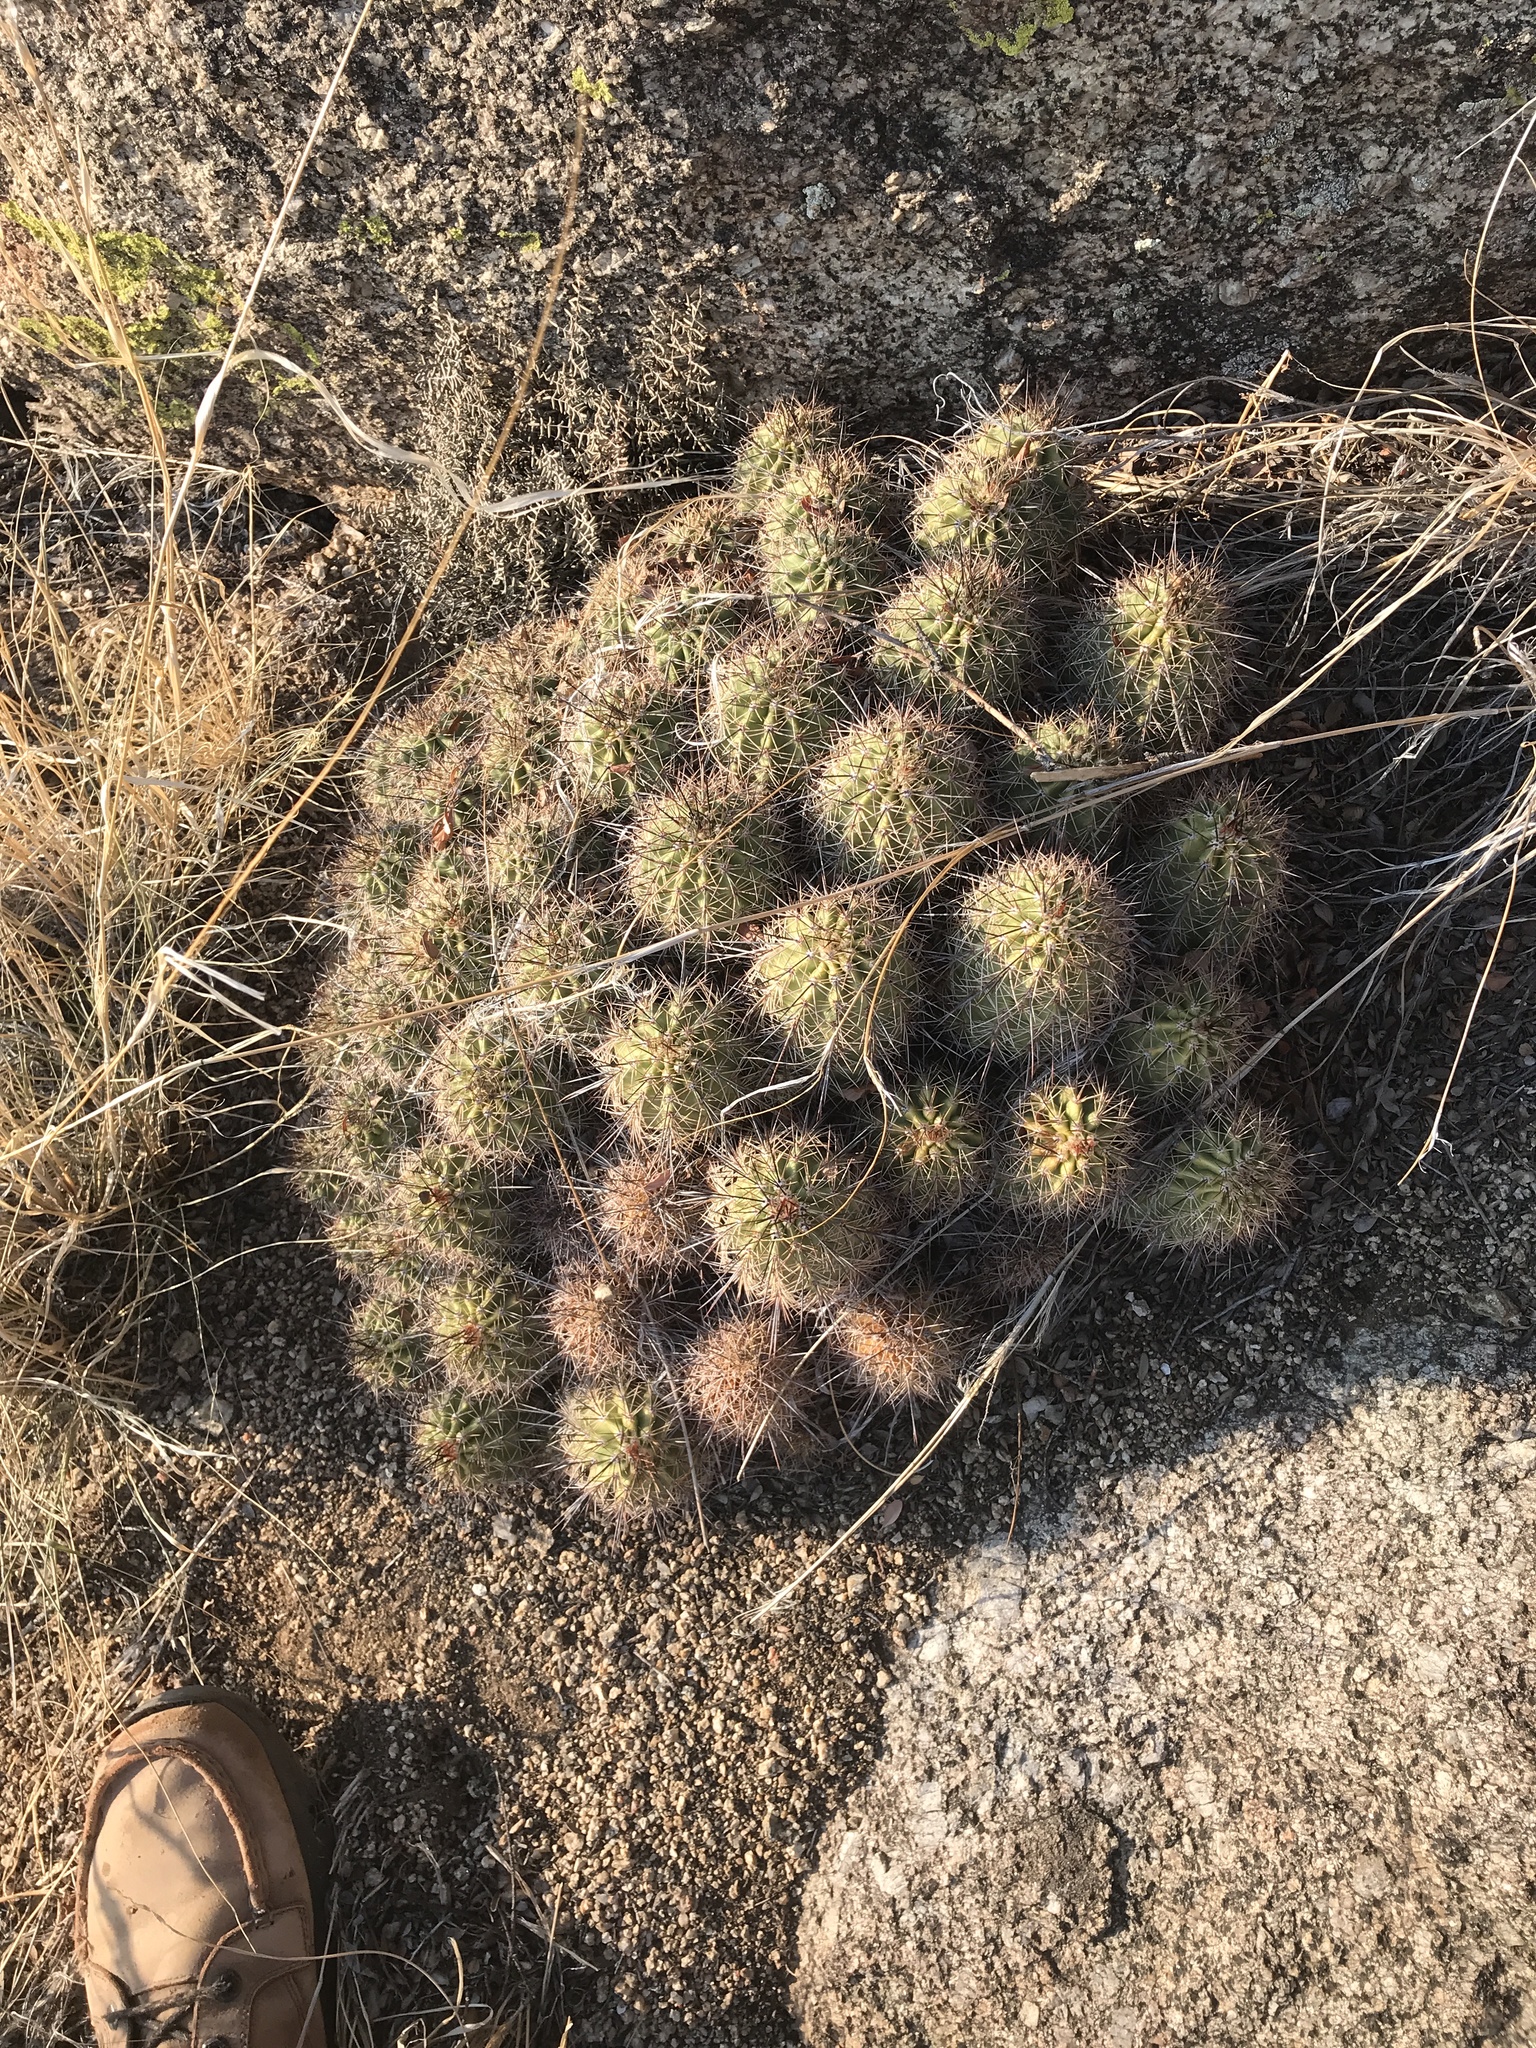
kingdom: Plantae
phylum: Tracheophyta
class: Magnoliopsida
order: Caryophyllales
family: Cactaceae
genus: Echinocereus
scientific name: Echinocereus coccineus
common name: Scarlet hedgehog cactus
